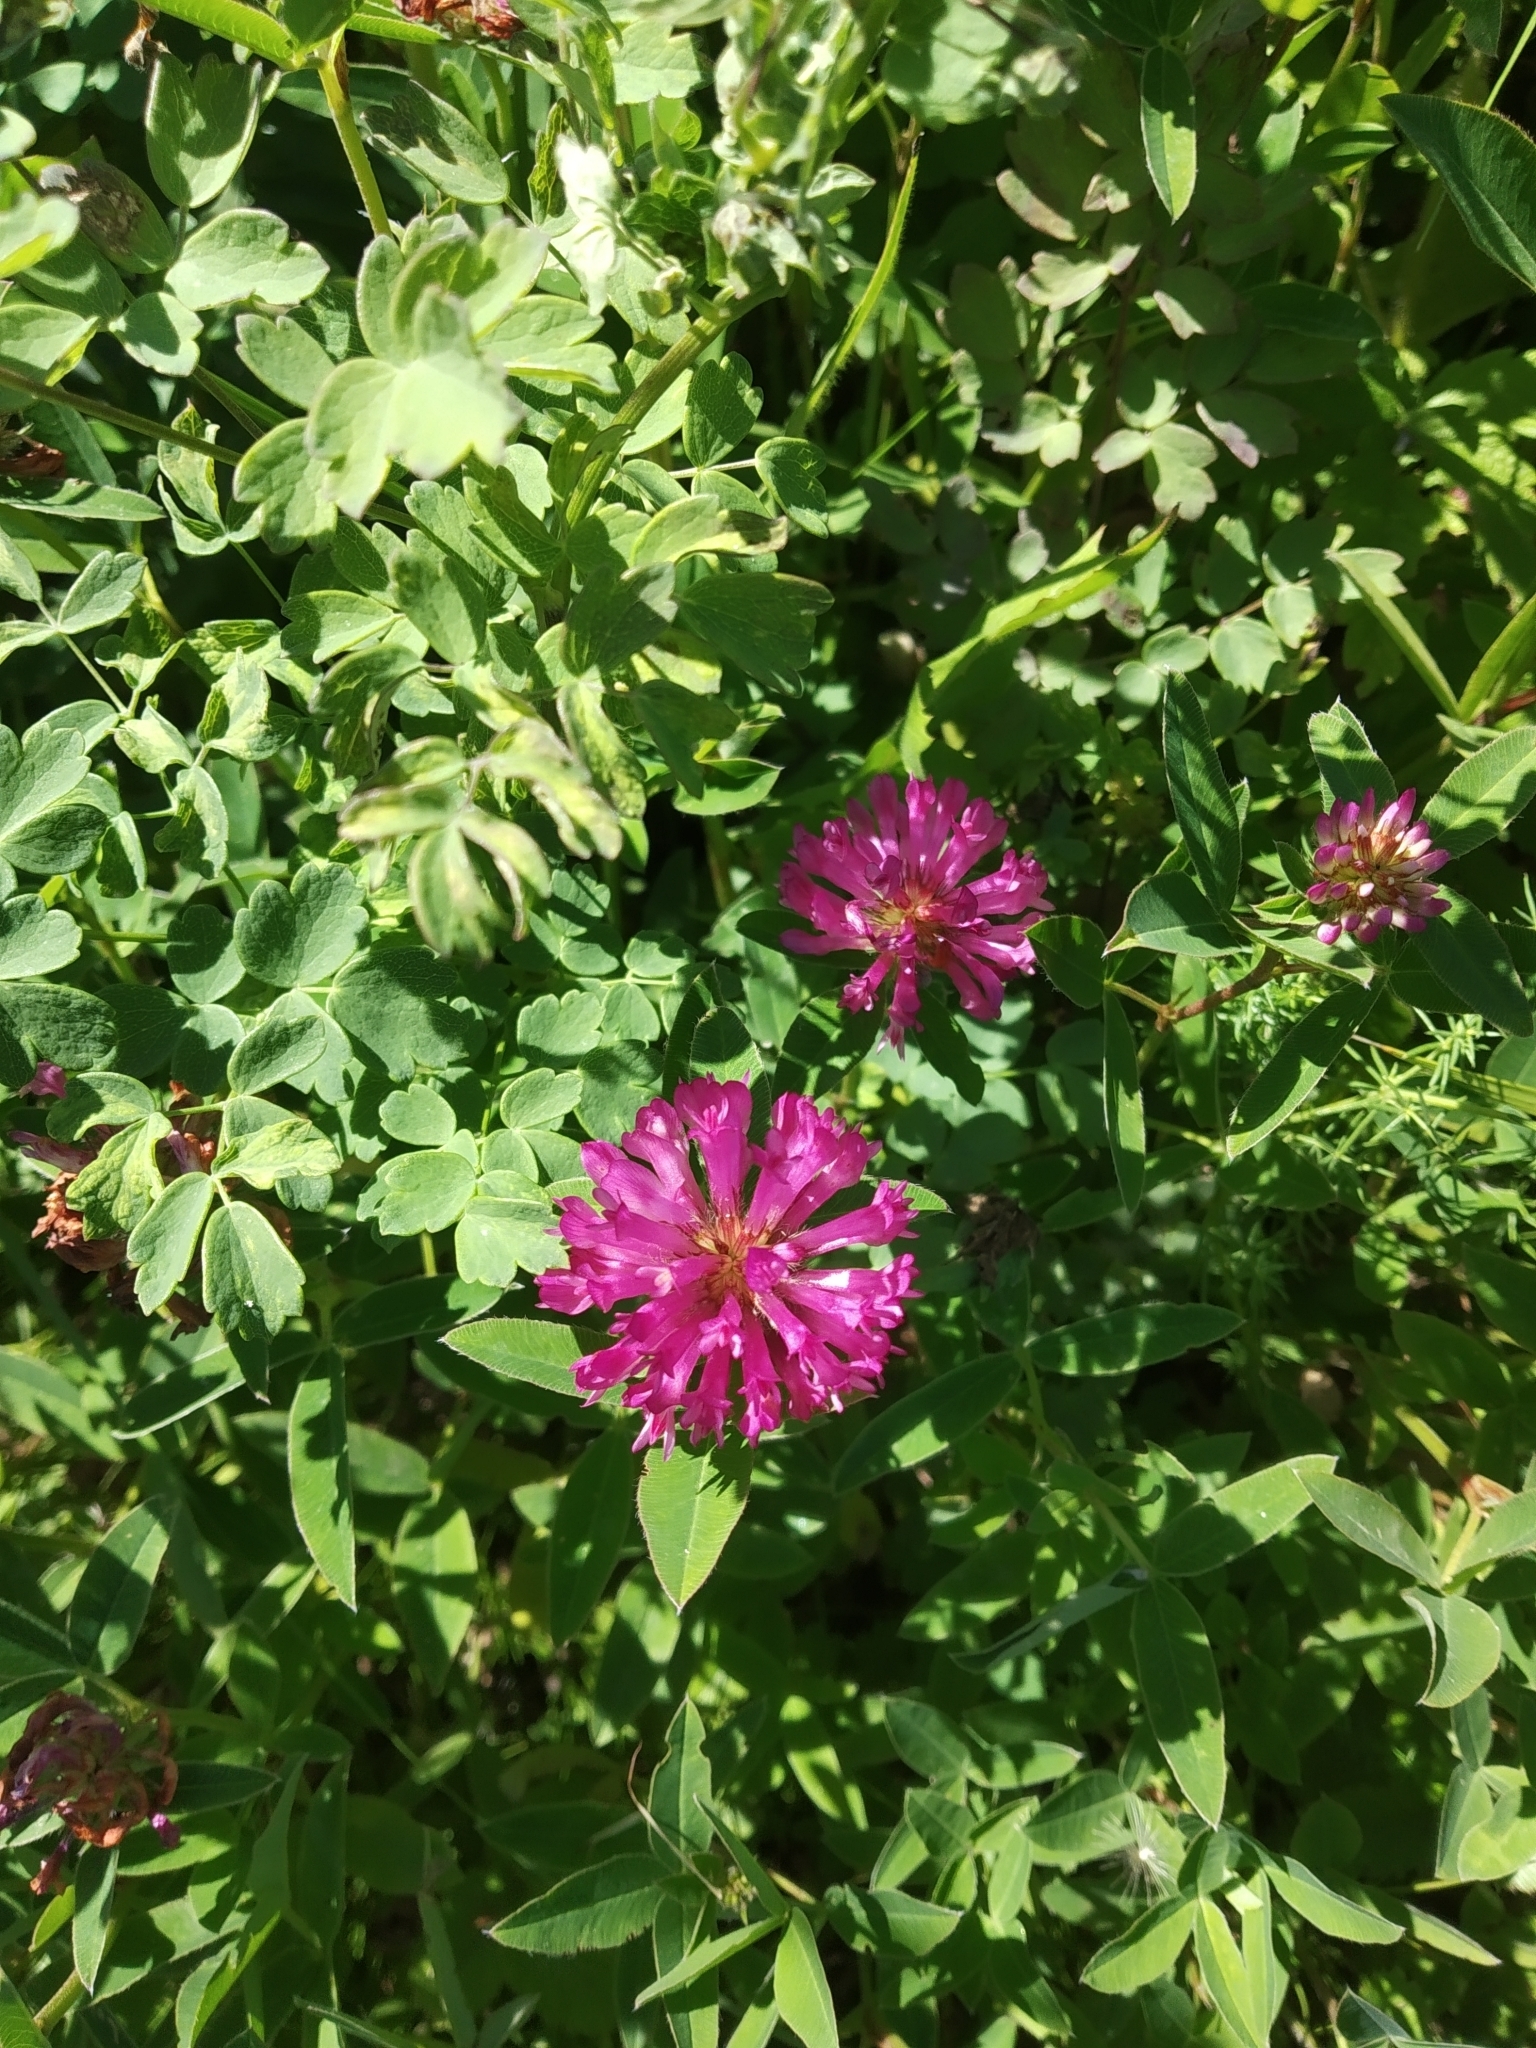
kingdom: Plantae
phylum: Tracheophyta
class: Magnoliopsida
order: Fabales
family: Fabaceae
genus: Trifolium
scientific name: Trifolium medium
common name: Zigzag clover
